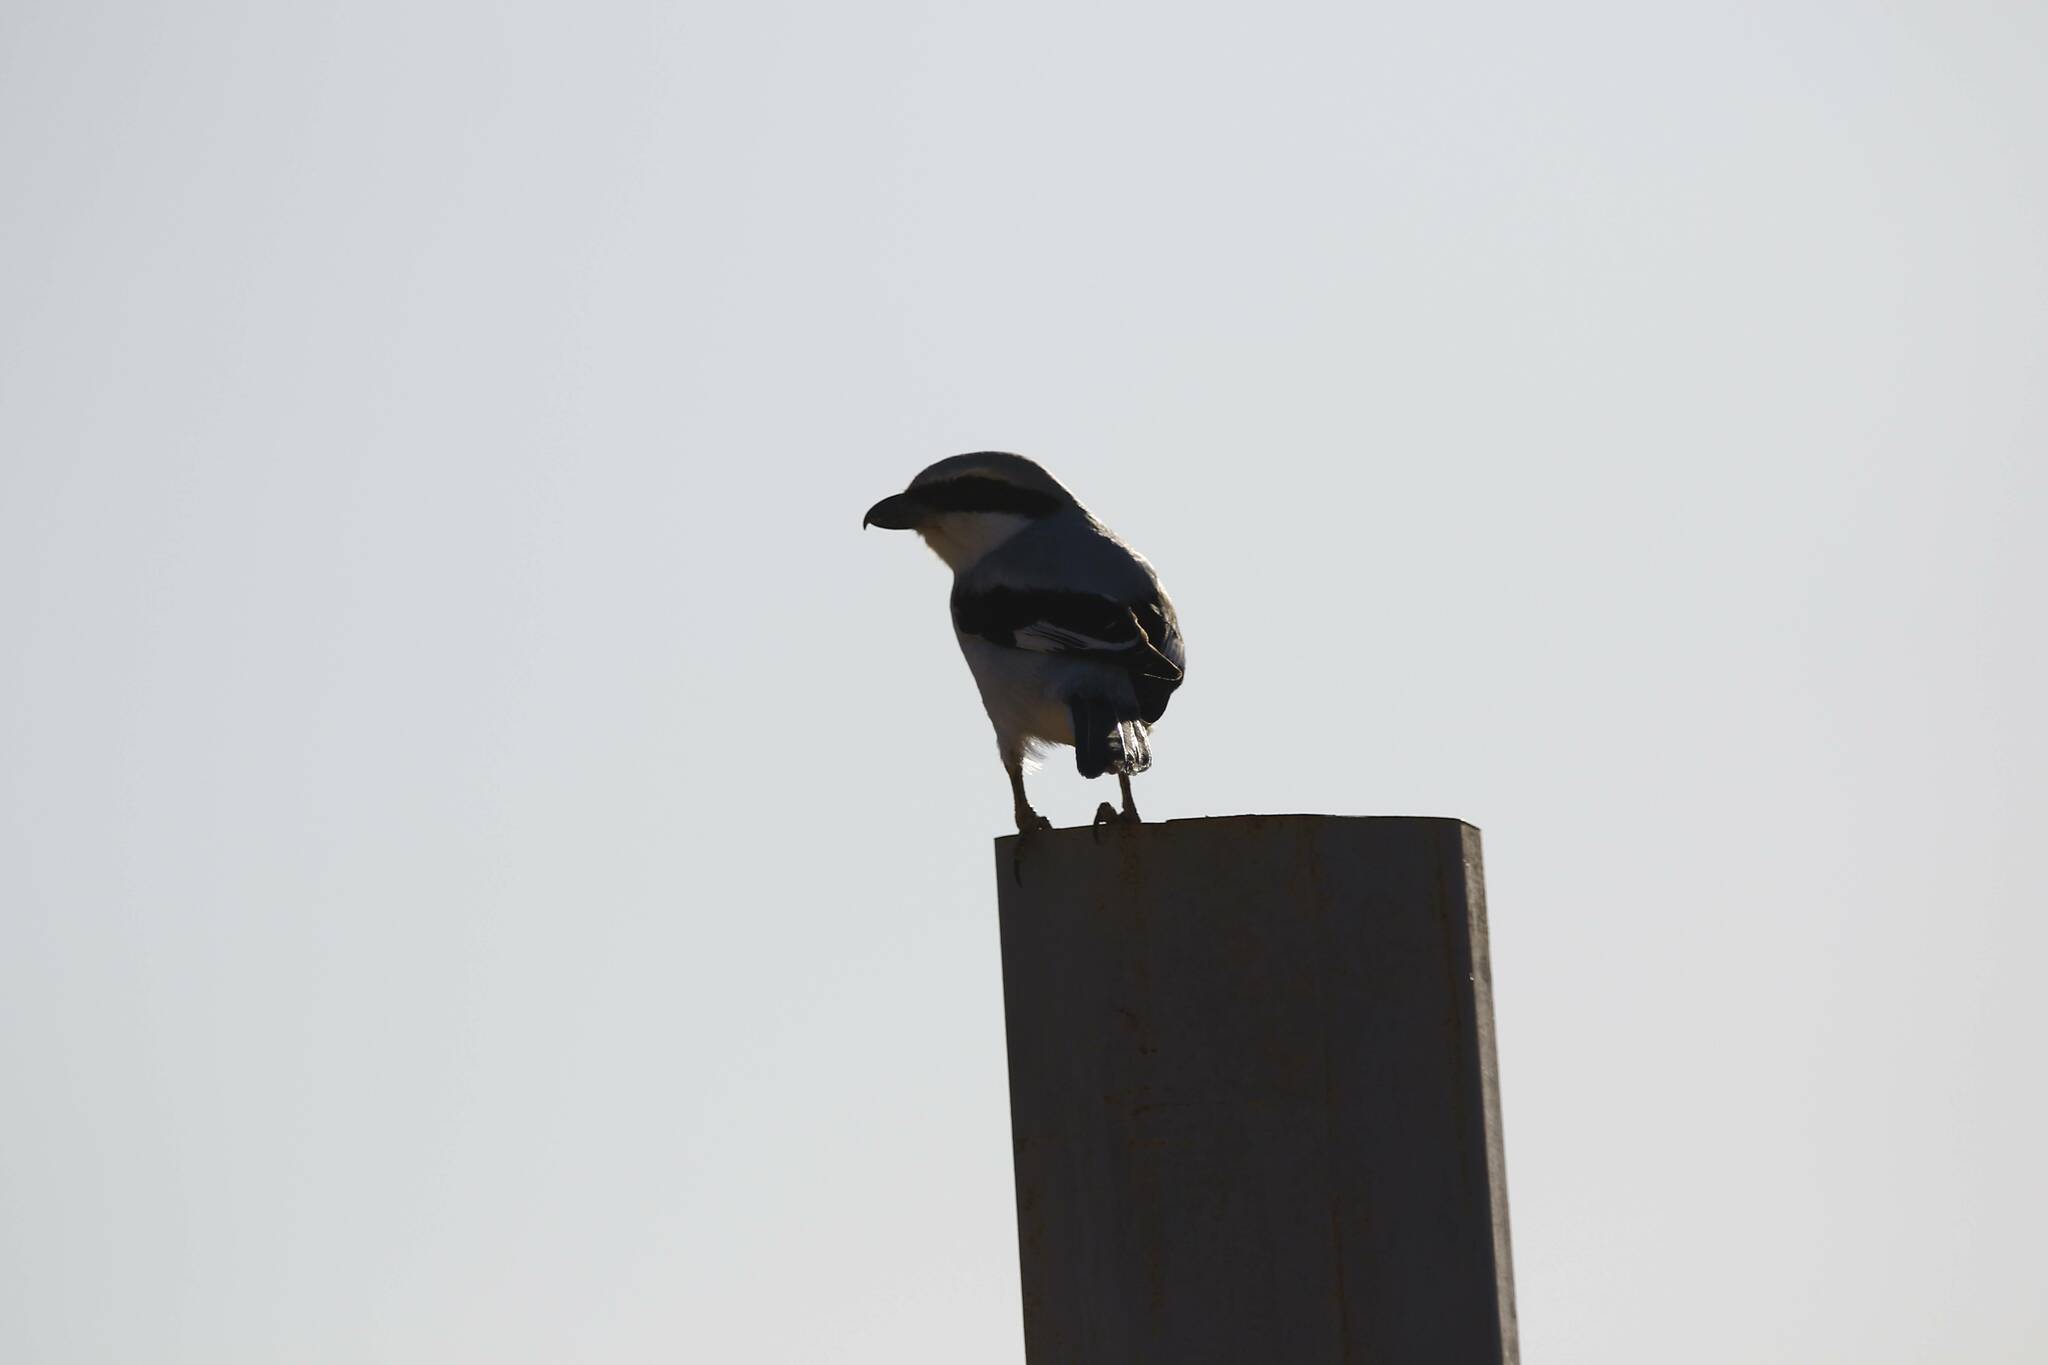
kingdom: Animalia
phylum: Chordata
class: Aves
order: Passeriformes
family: Laniidae
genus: Lanius
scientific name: Lanius excubitor
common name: Great grey shrike
